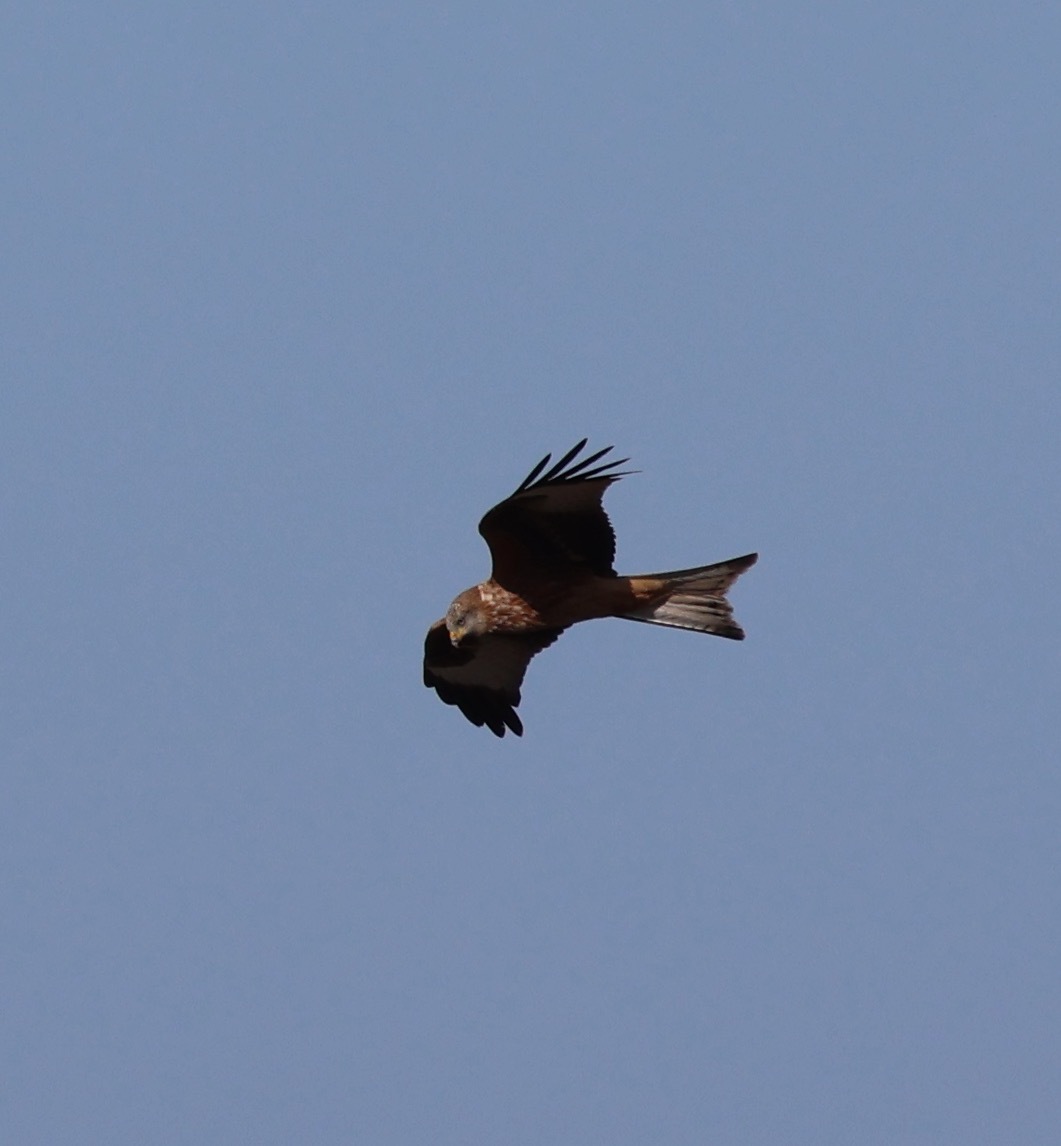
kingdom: Animalia
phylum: Chordata
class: Aves
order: Accipitriformes
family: Accipitridae
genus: Milvus
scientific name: Milvus milvus
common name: Red kite
